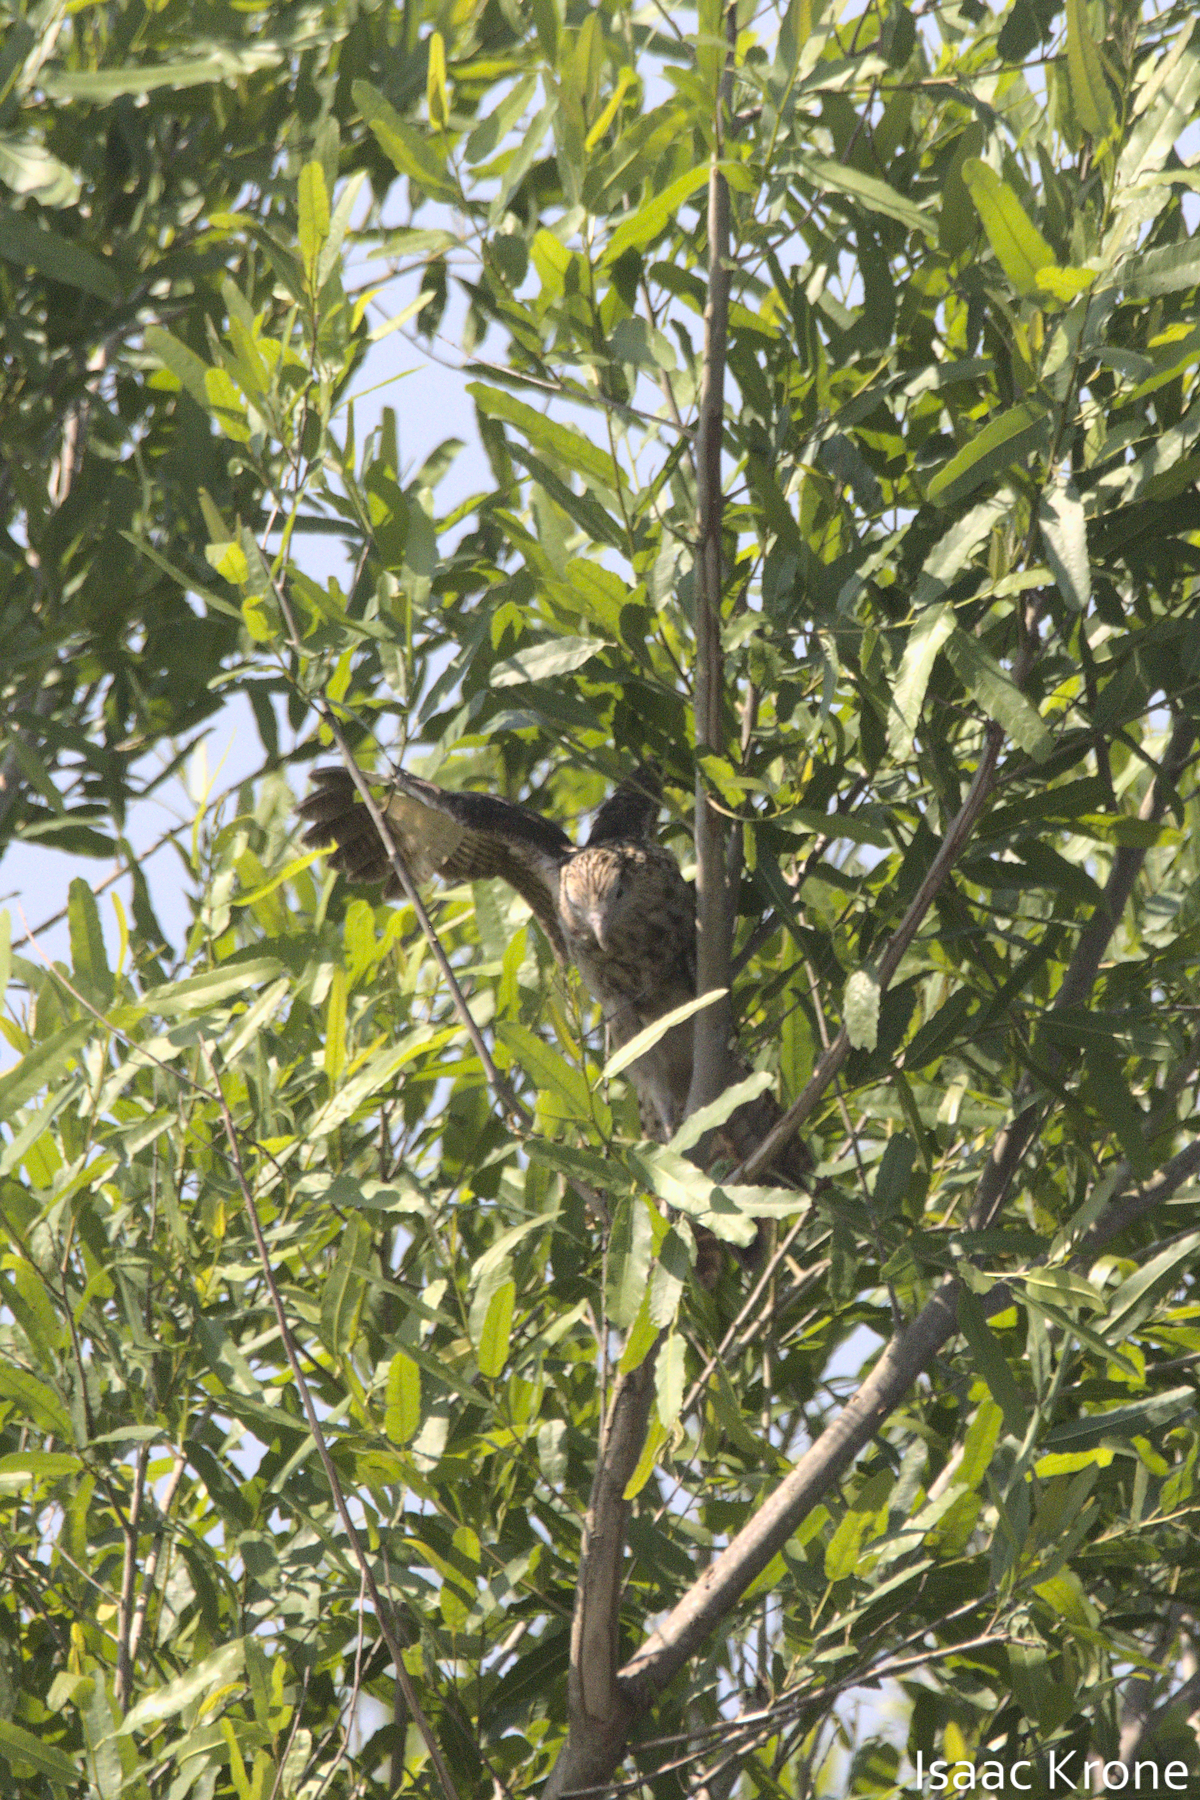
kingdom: Animalia
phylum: Chordata
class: Aves
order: Falconiformes
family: Falconidae
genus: Daptrius
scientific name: Daptrius
